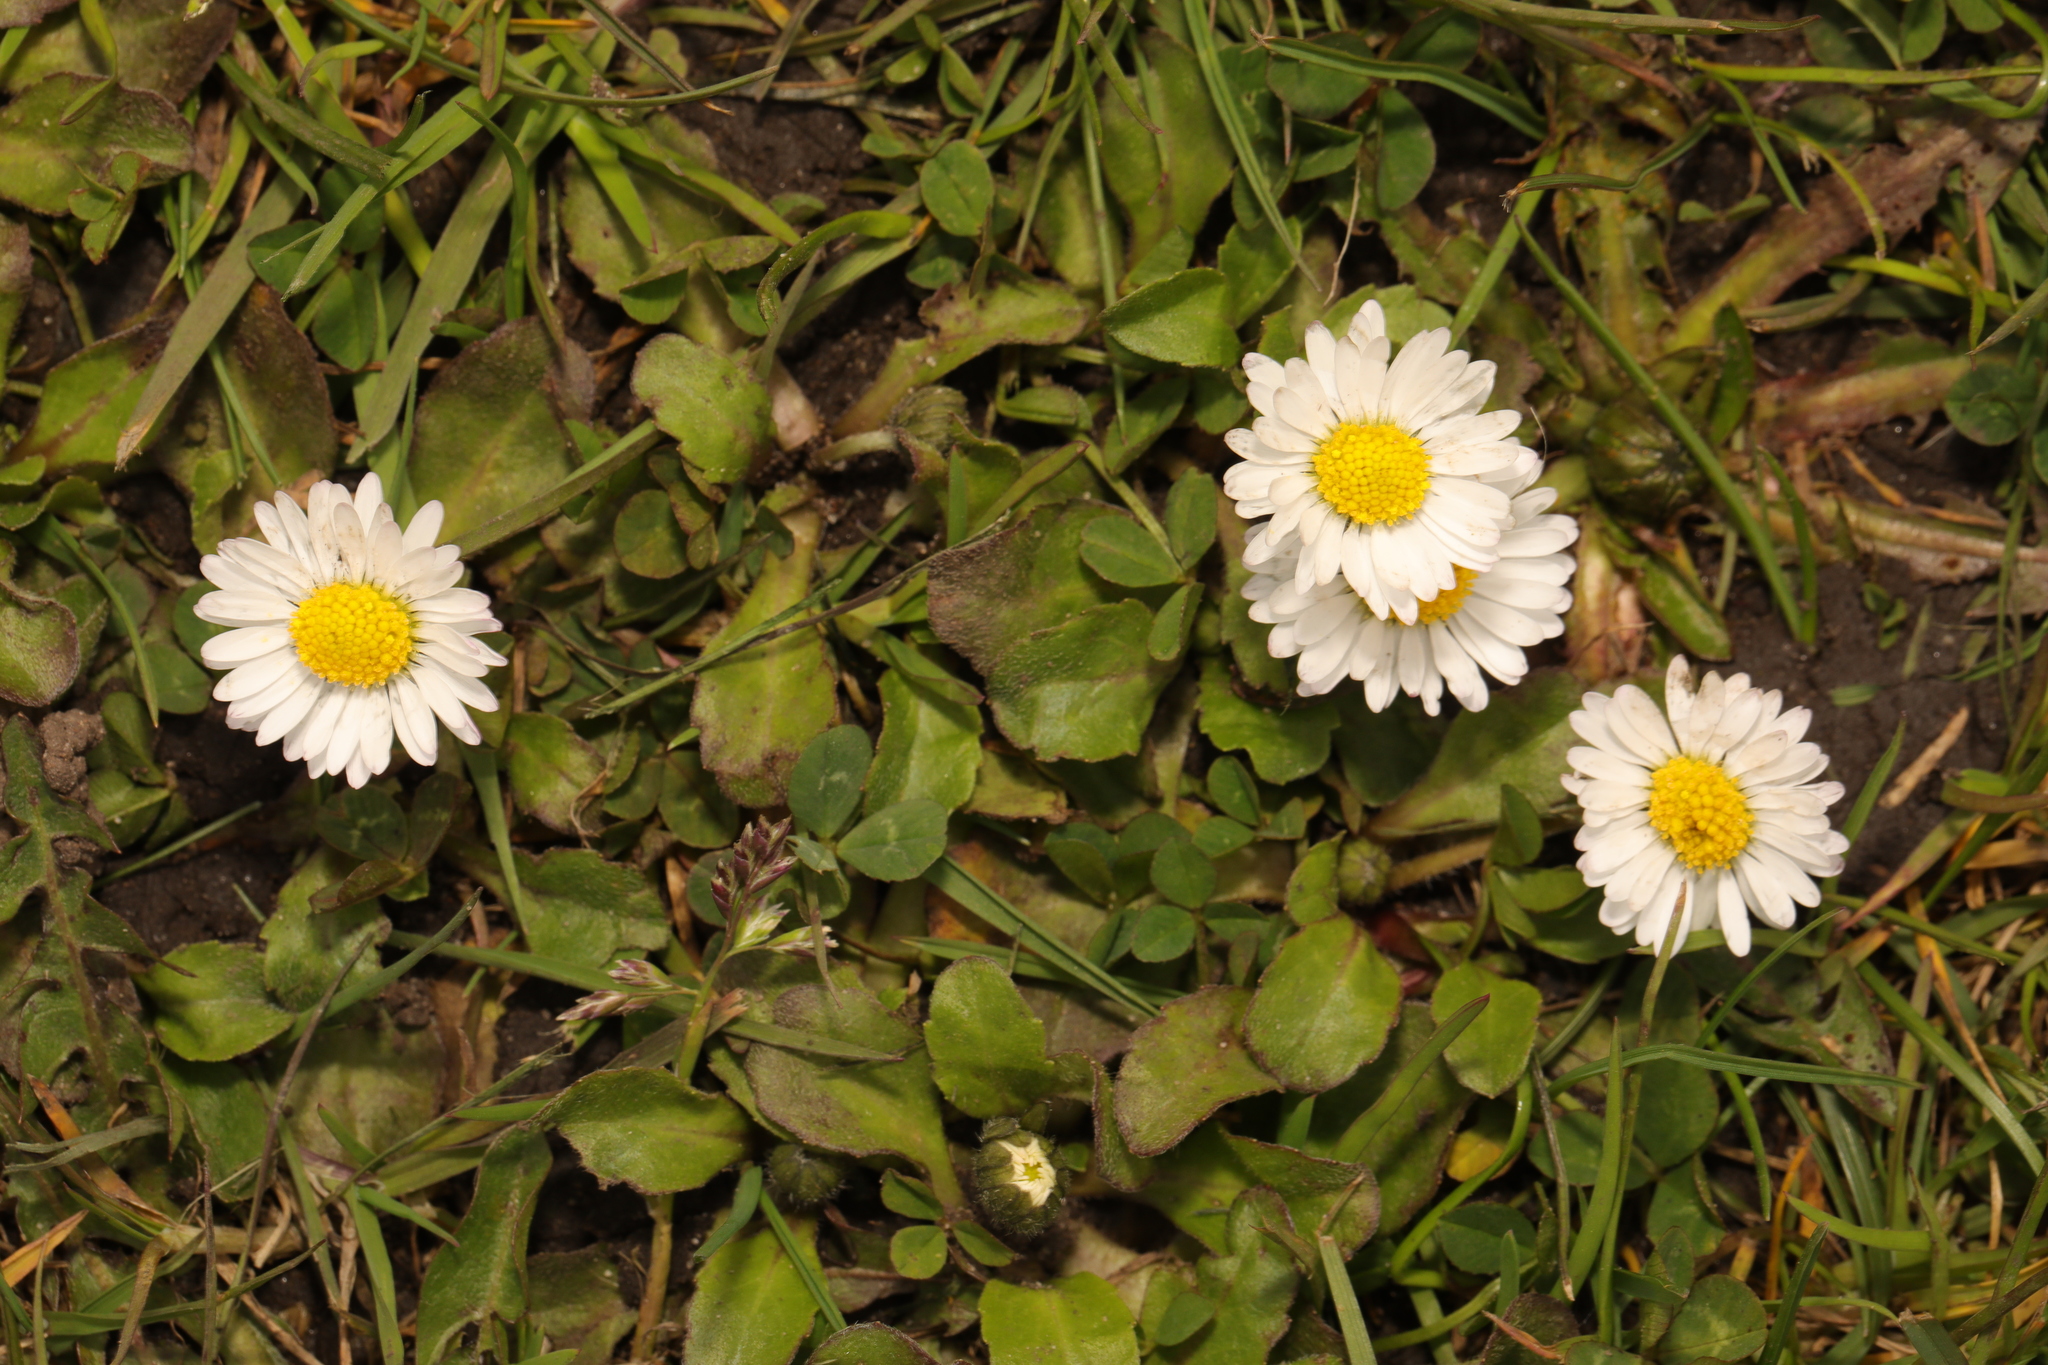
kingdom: Plantae
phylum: Tracheophyta
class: Magnoliopsida
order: Asterales
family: Asteraceae
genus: Bellis
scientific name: Bellis perennis
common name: Lawndaisy
